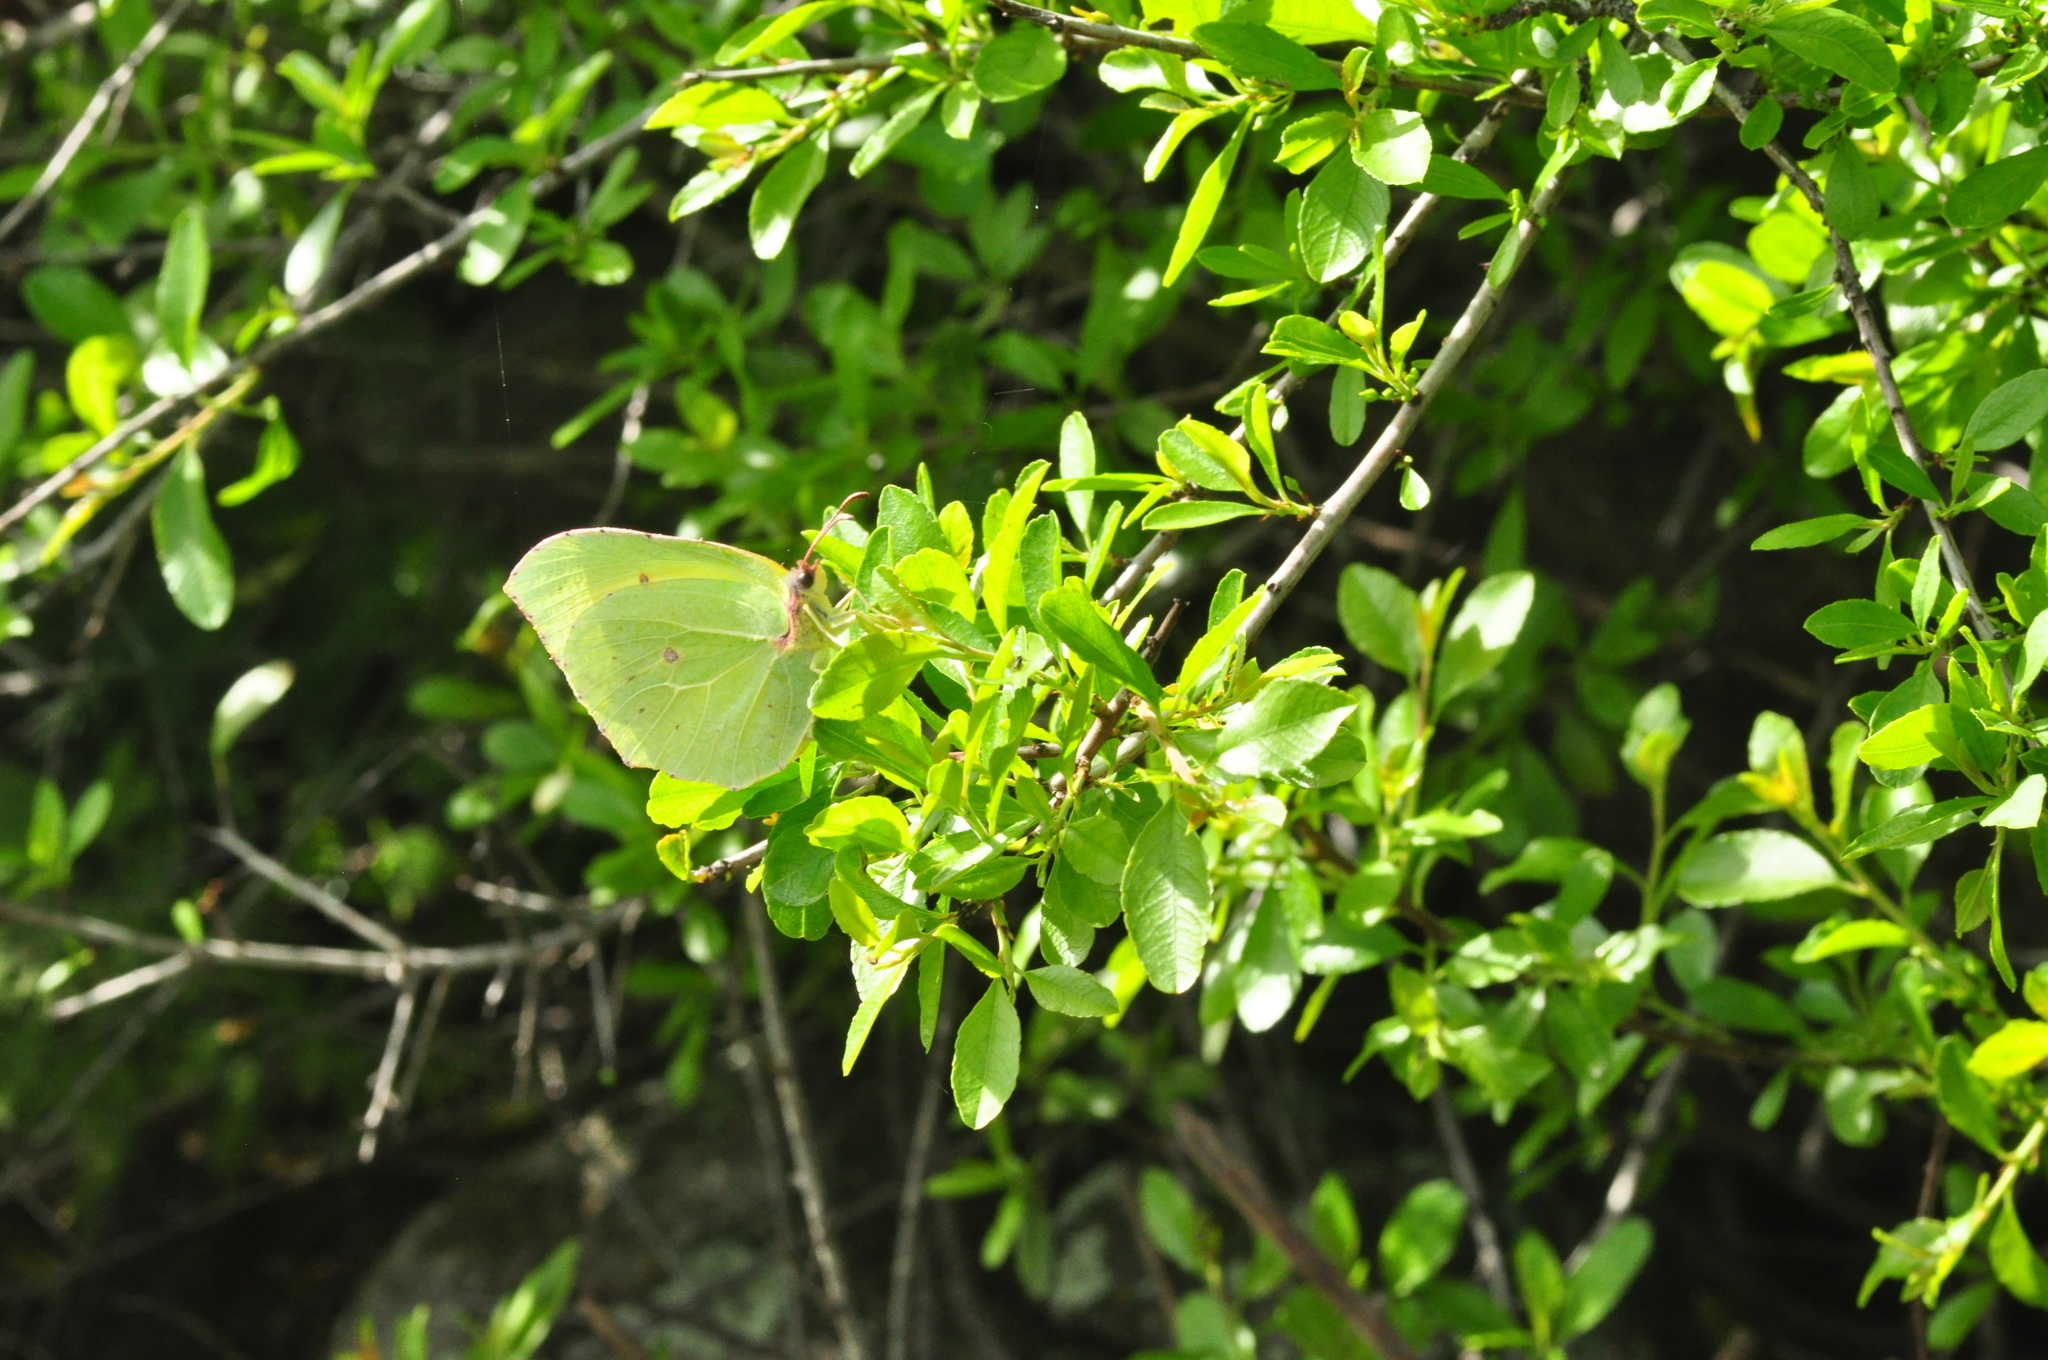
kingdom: Animalia
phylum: Arthropoda
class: Insecta
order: Lepidoptera
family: Pieridae
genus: Gonepteryx
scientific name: Gonepteryx cleobule
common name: Canary brimstone
